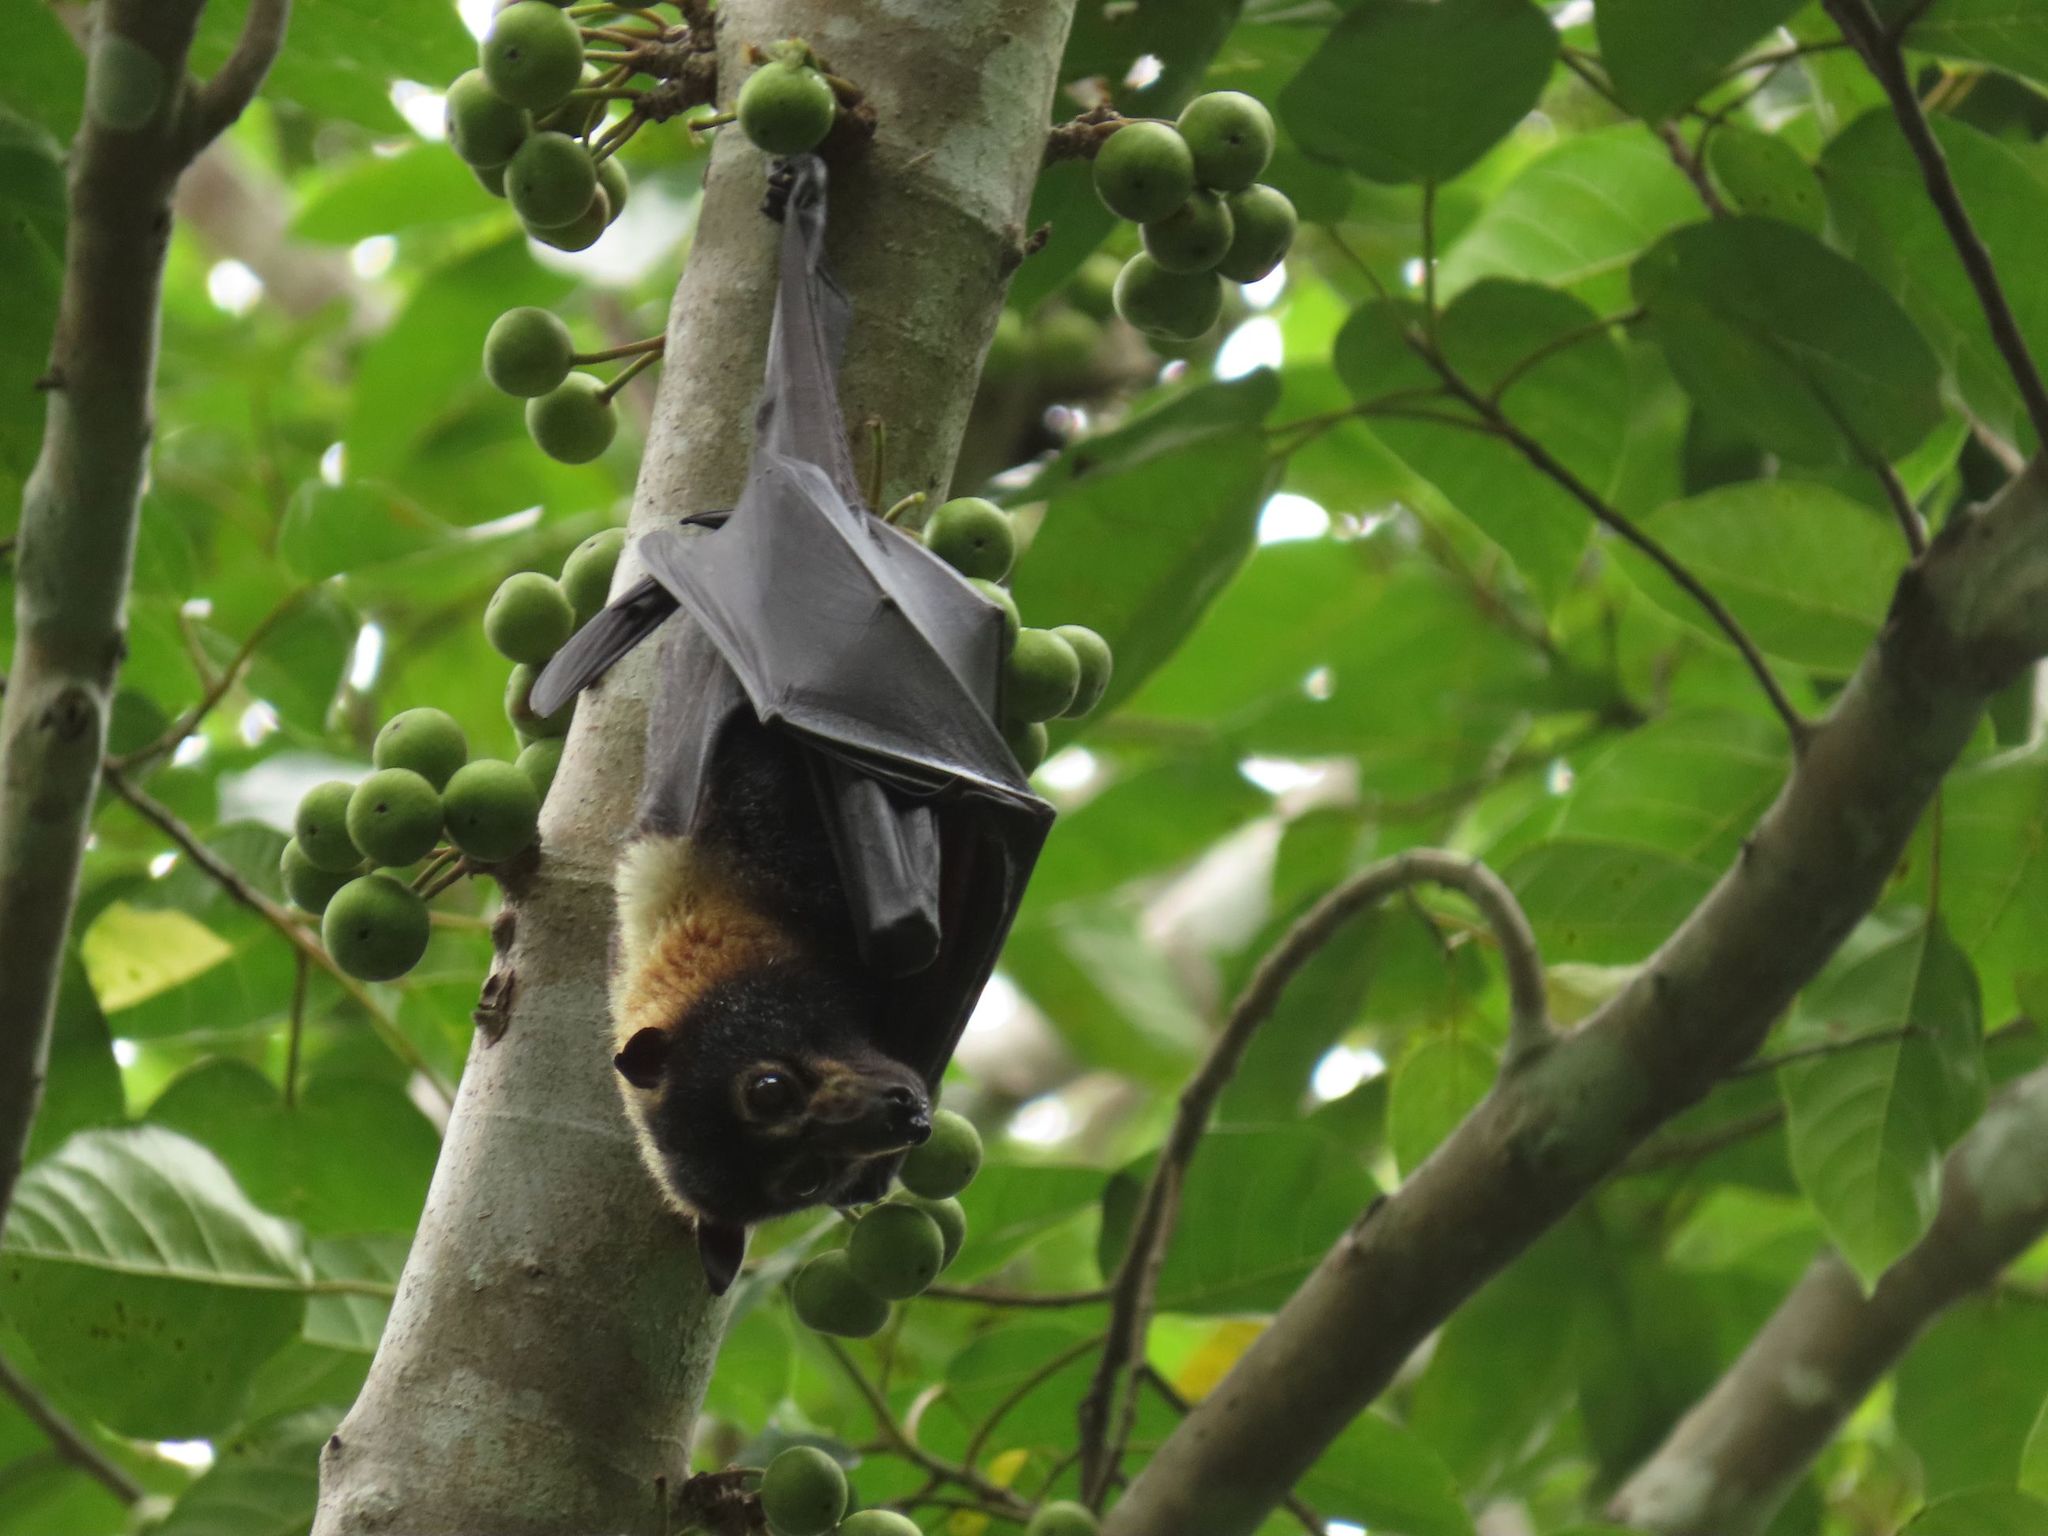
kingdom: Animalia
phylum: Chordata
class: Mammalia
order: Chiroptera
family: Pteropodidae
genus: Pteropus
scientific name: Pteropus conspicillatus
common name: Spectacled flying fox
